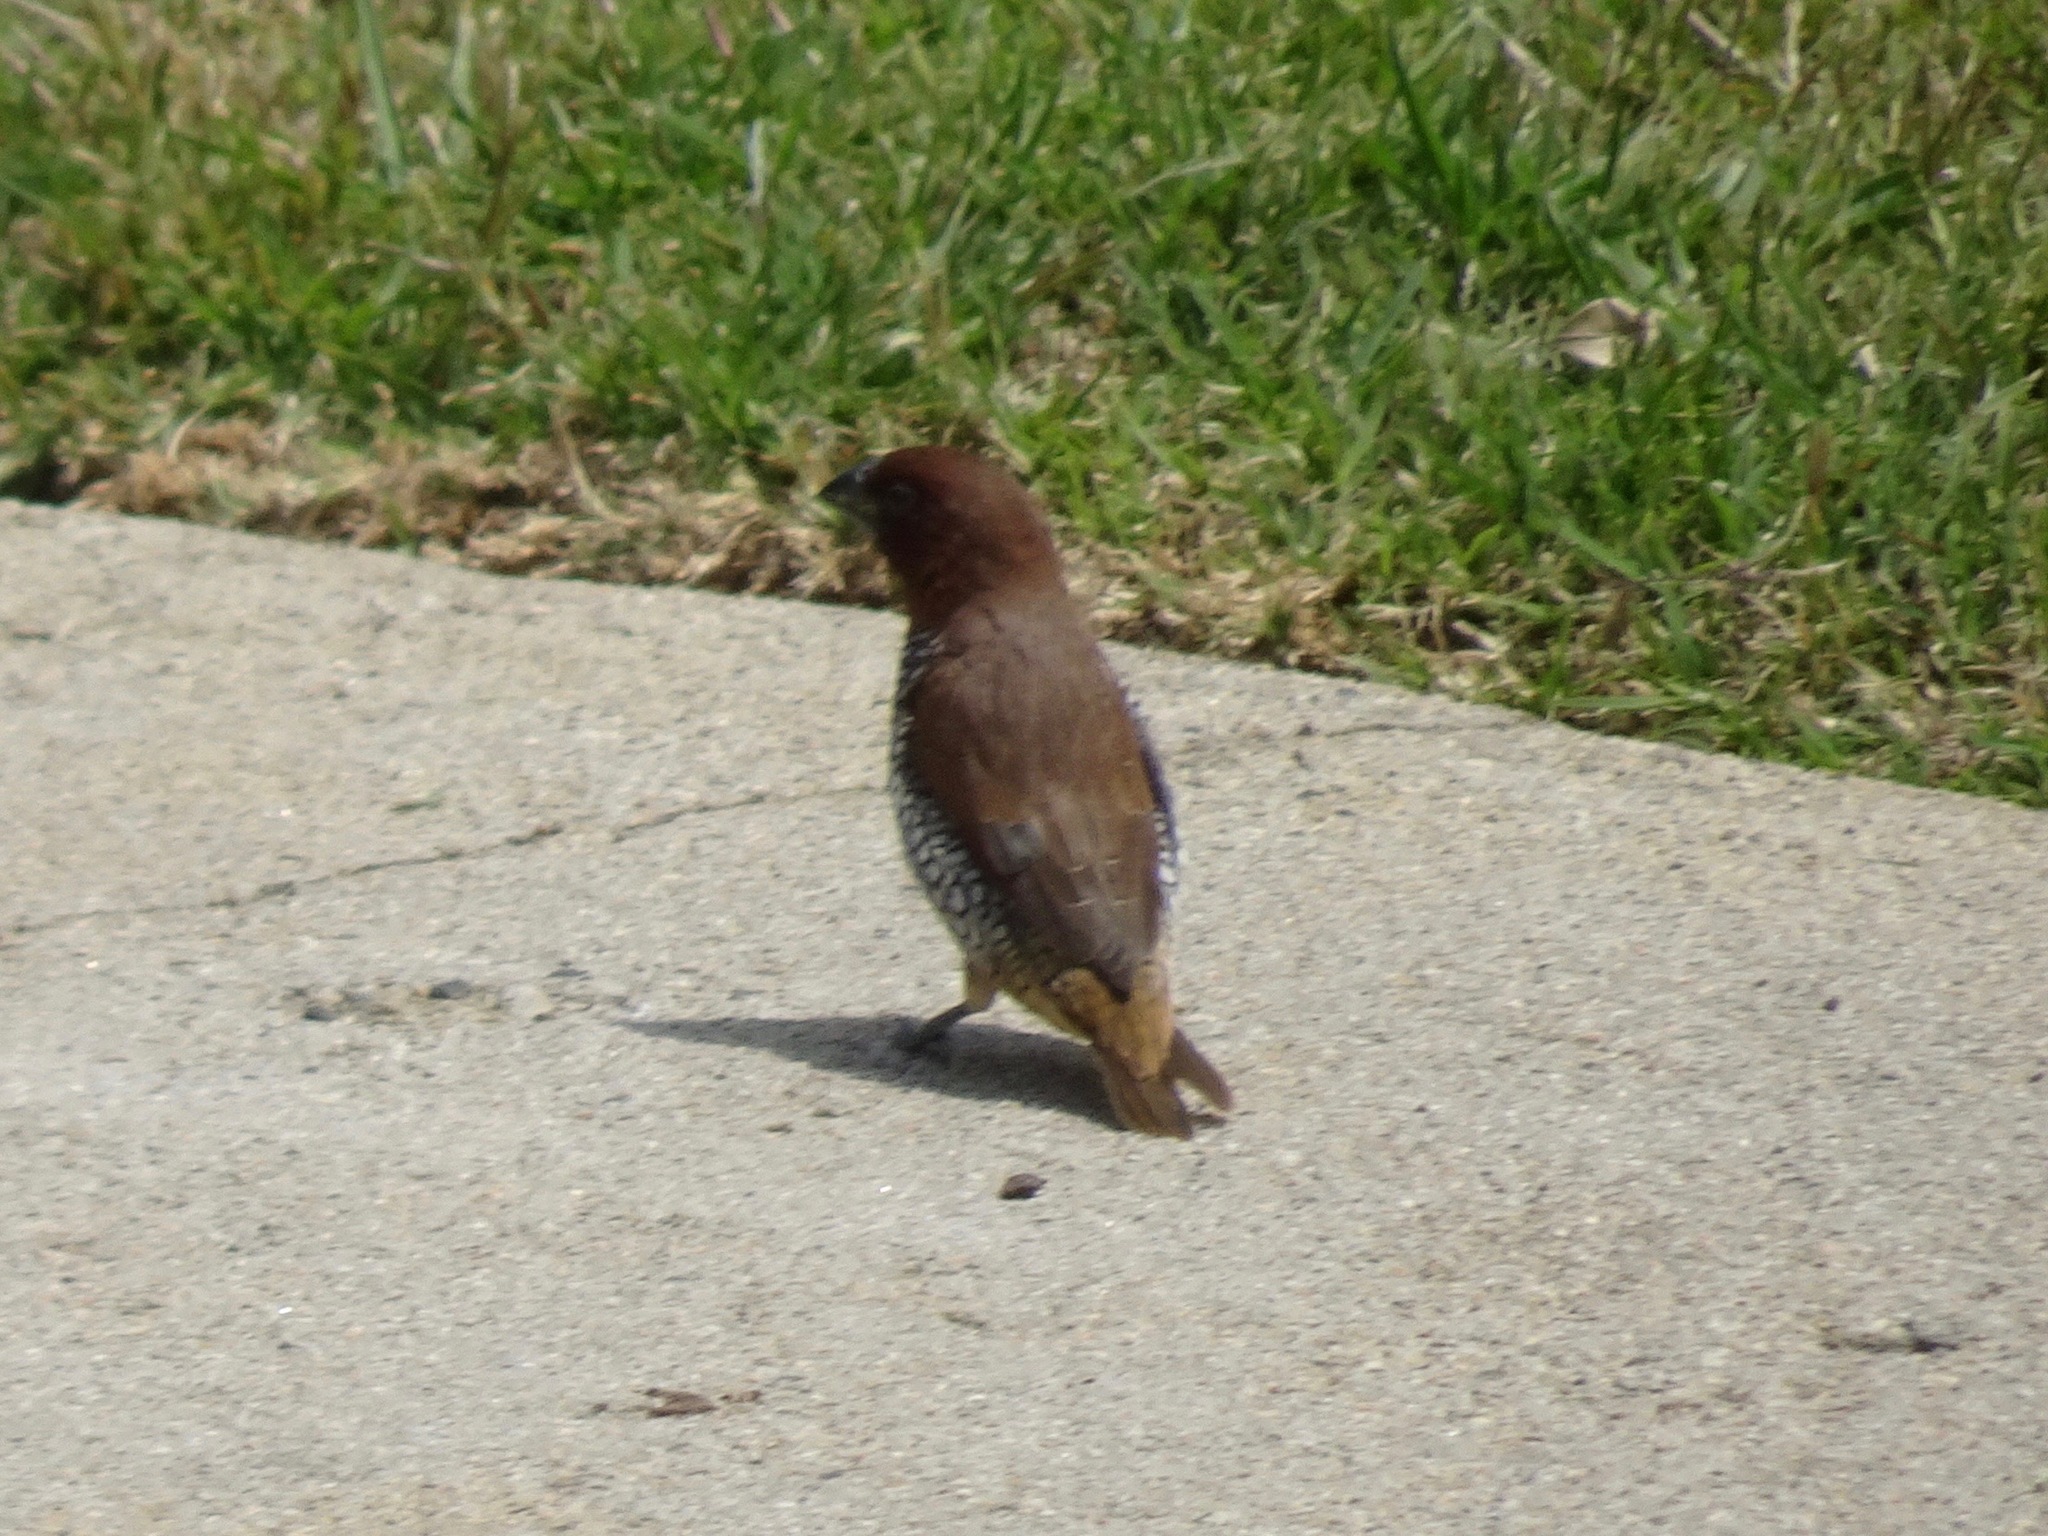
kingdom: Animalia
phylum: Chordata
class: Aves
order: Passeriformes
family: Estrildidae
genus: Lonchura
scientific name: Lonchura punctulata
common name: Scaly-breasted munia
